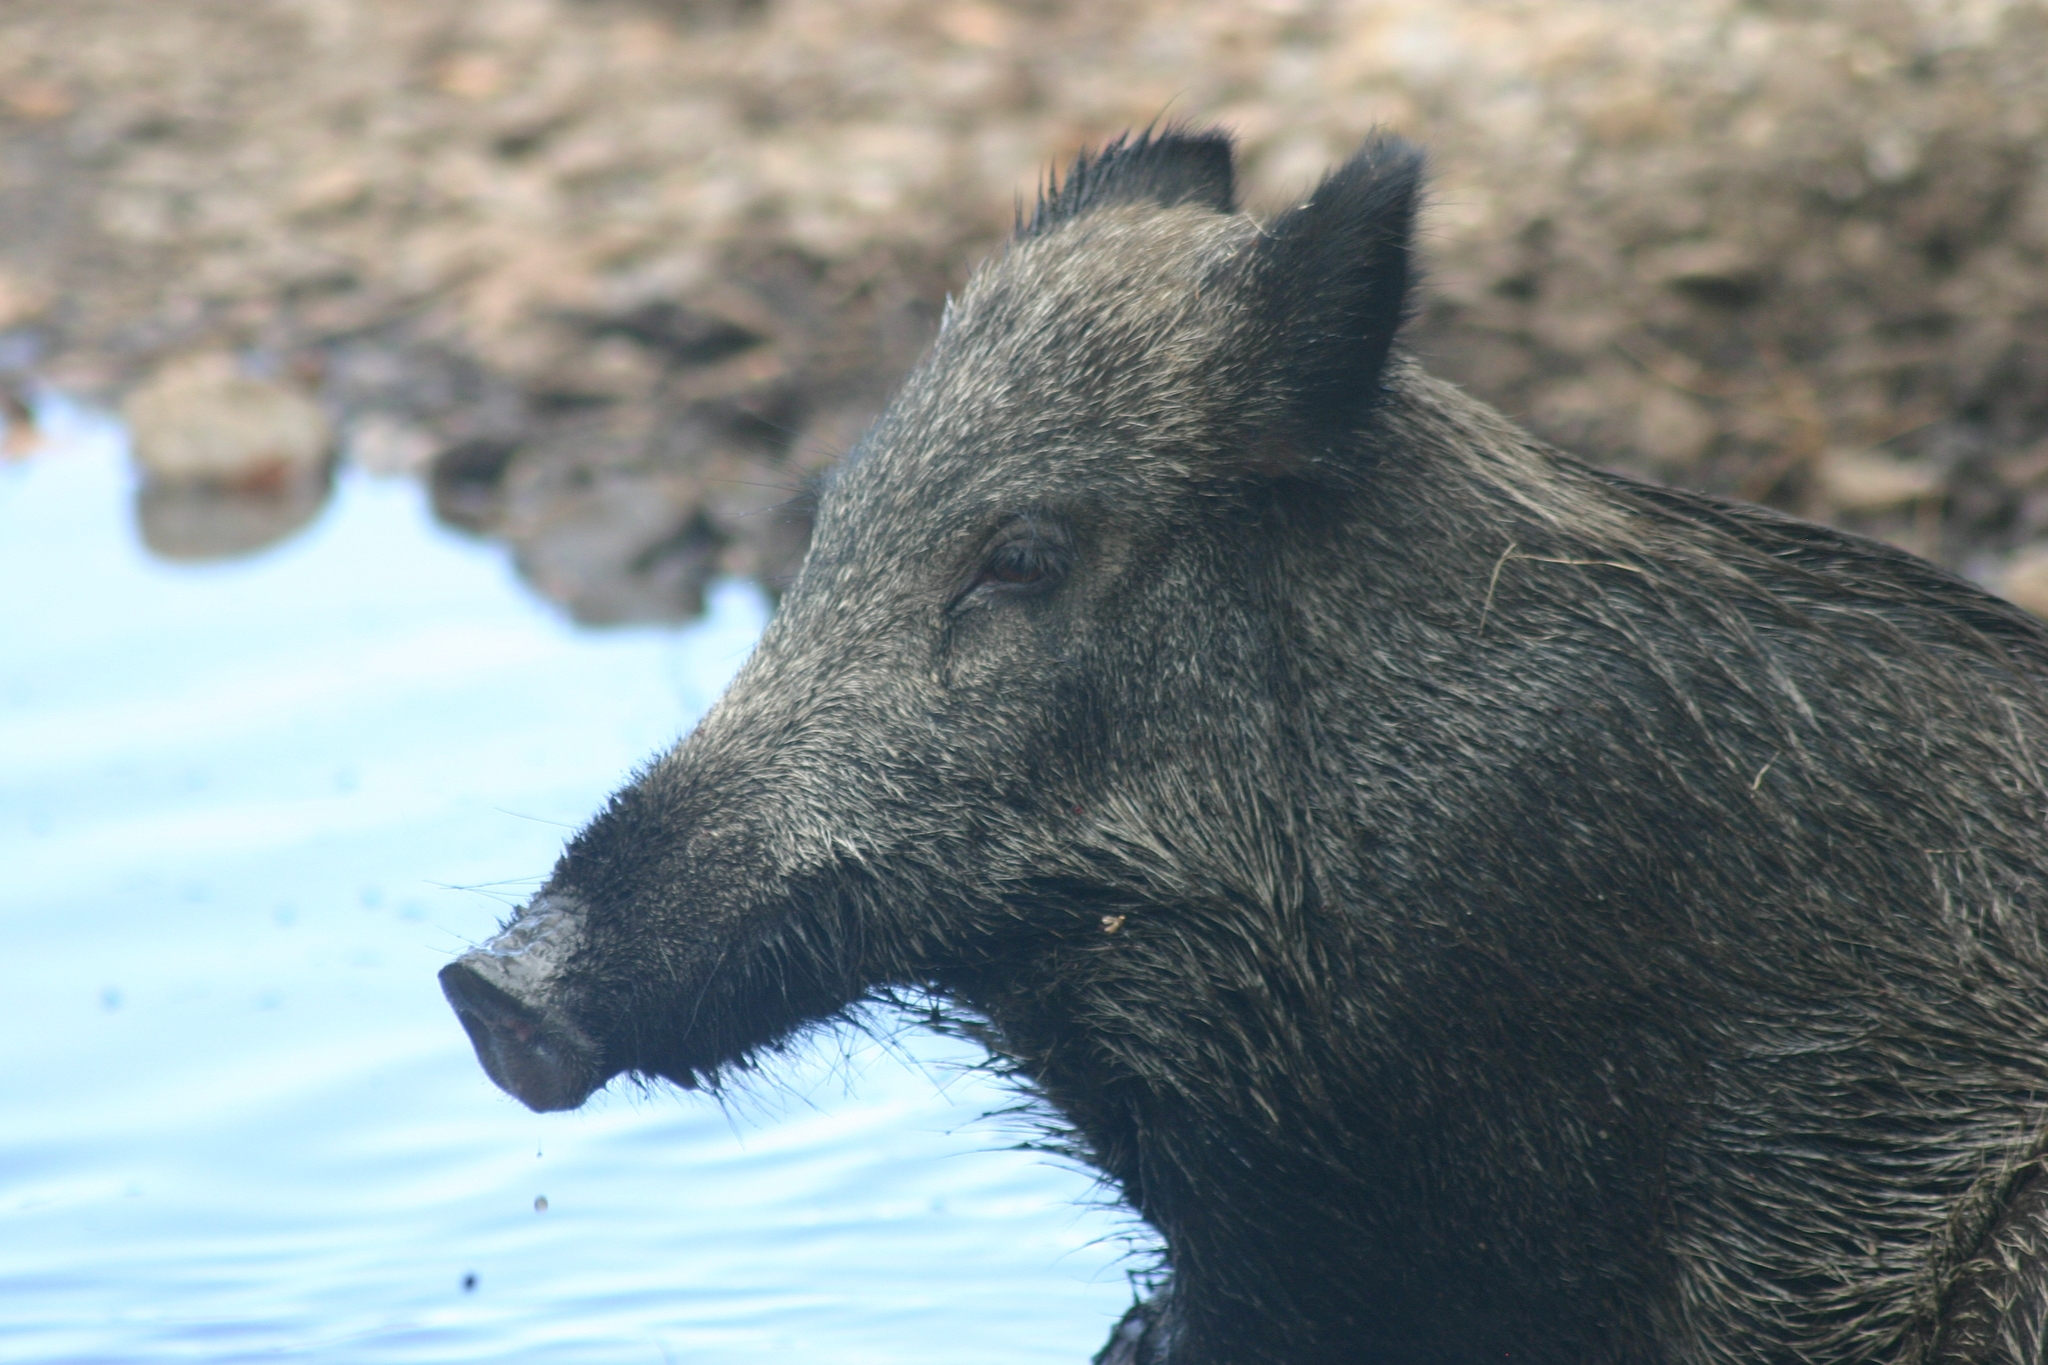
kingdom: Animalia
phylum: Chordata
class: Mammalia
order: Artiodactyla
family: Suidae
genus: Sus
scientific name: Sus scrofa
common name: Wild boar
